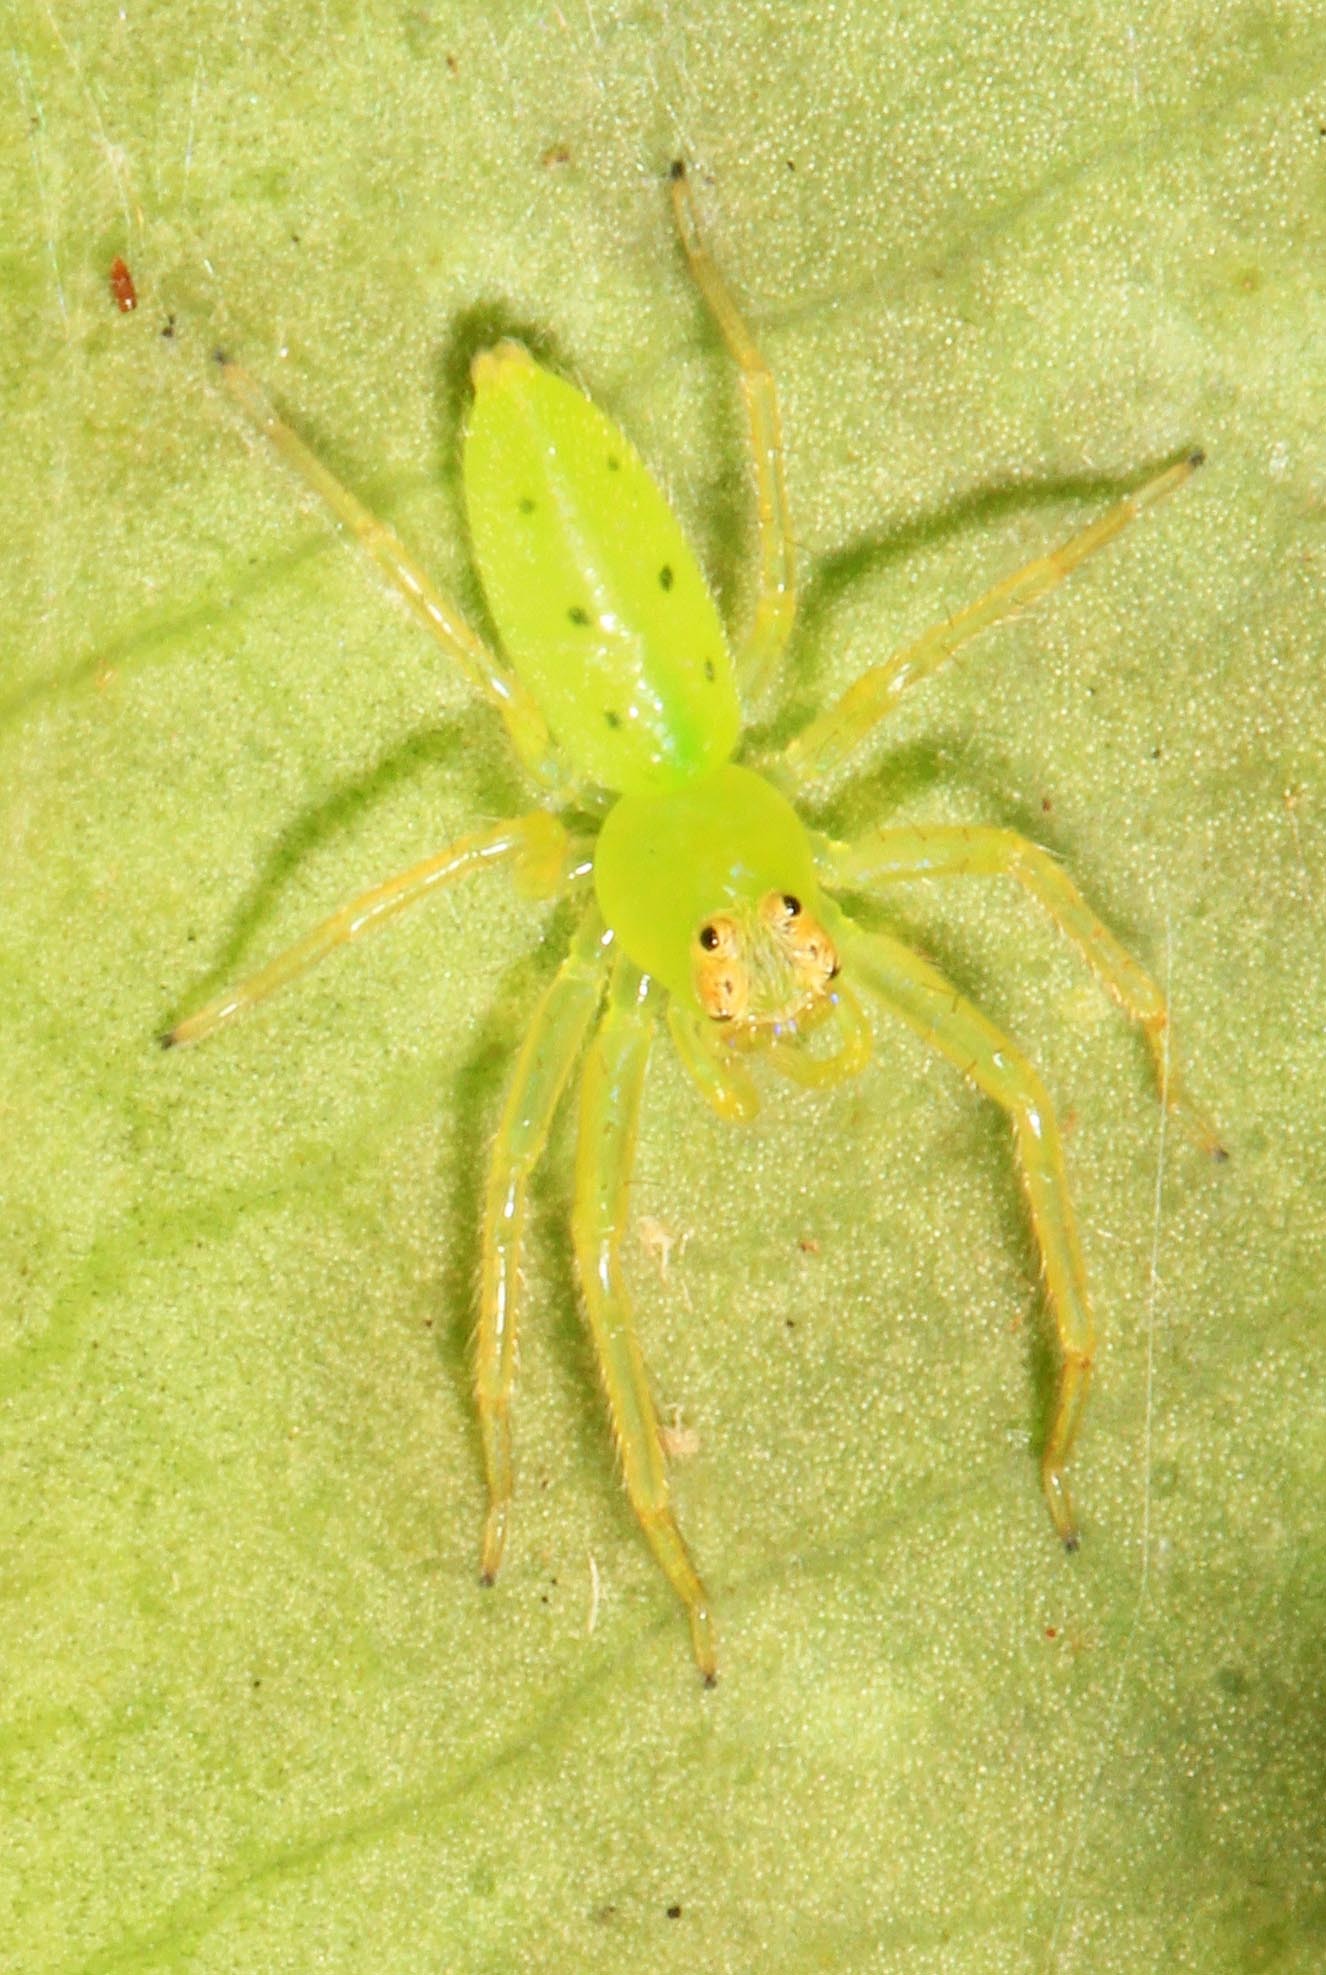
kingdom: Animalia
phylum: Arthropoda
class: Arachnida
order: Araneae
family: Salticidae
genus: Lyssomanes
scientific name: Lyssomanes viridis
